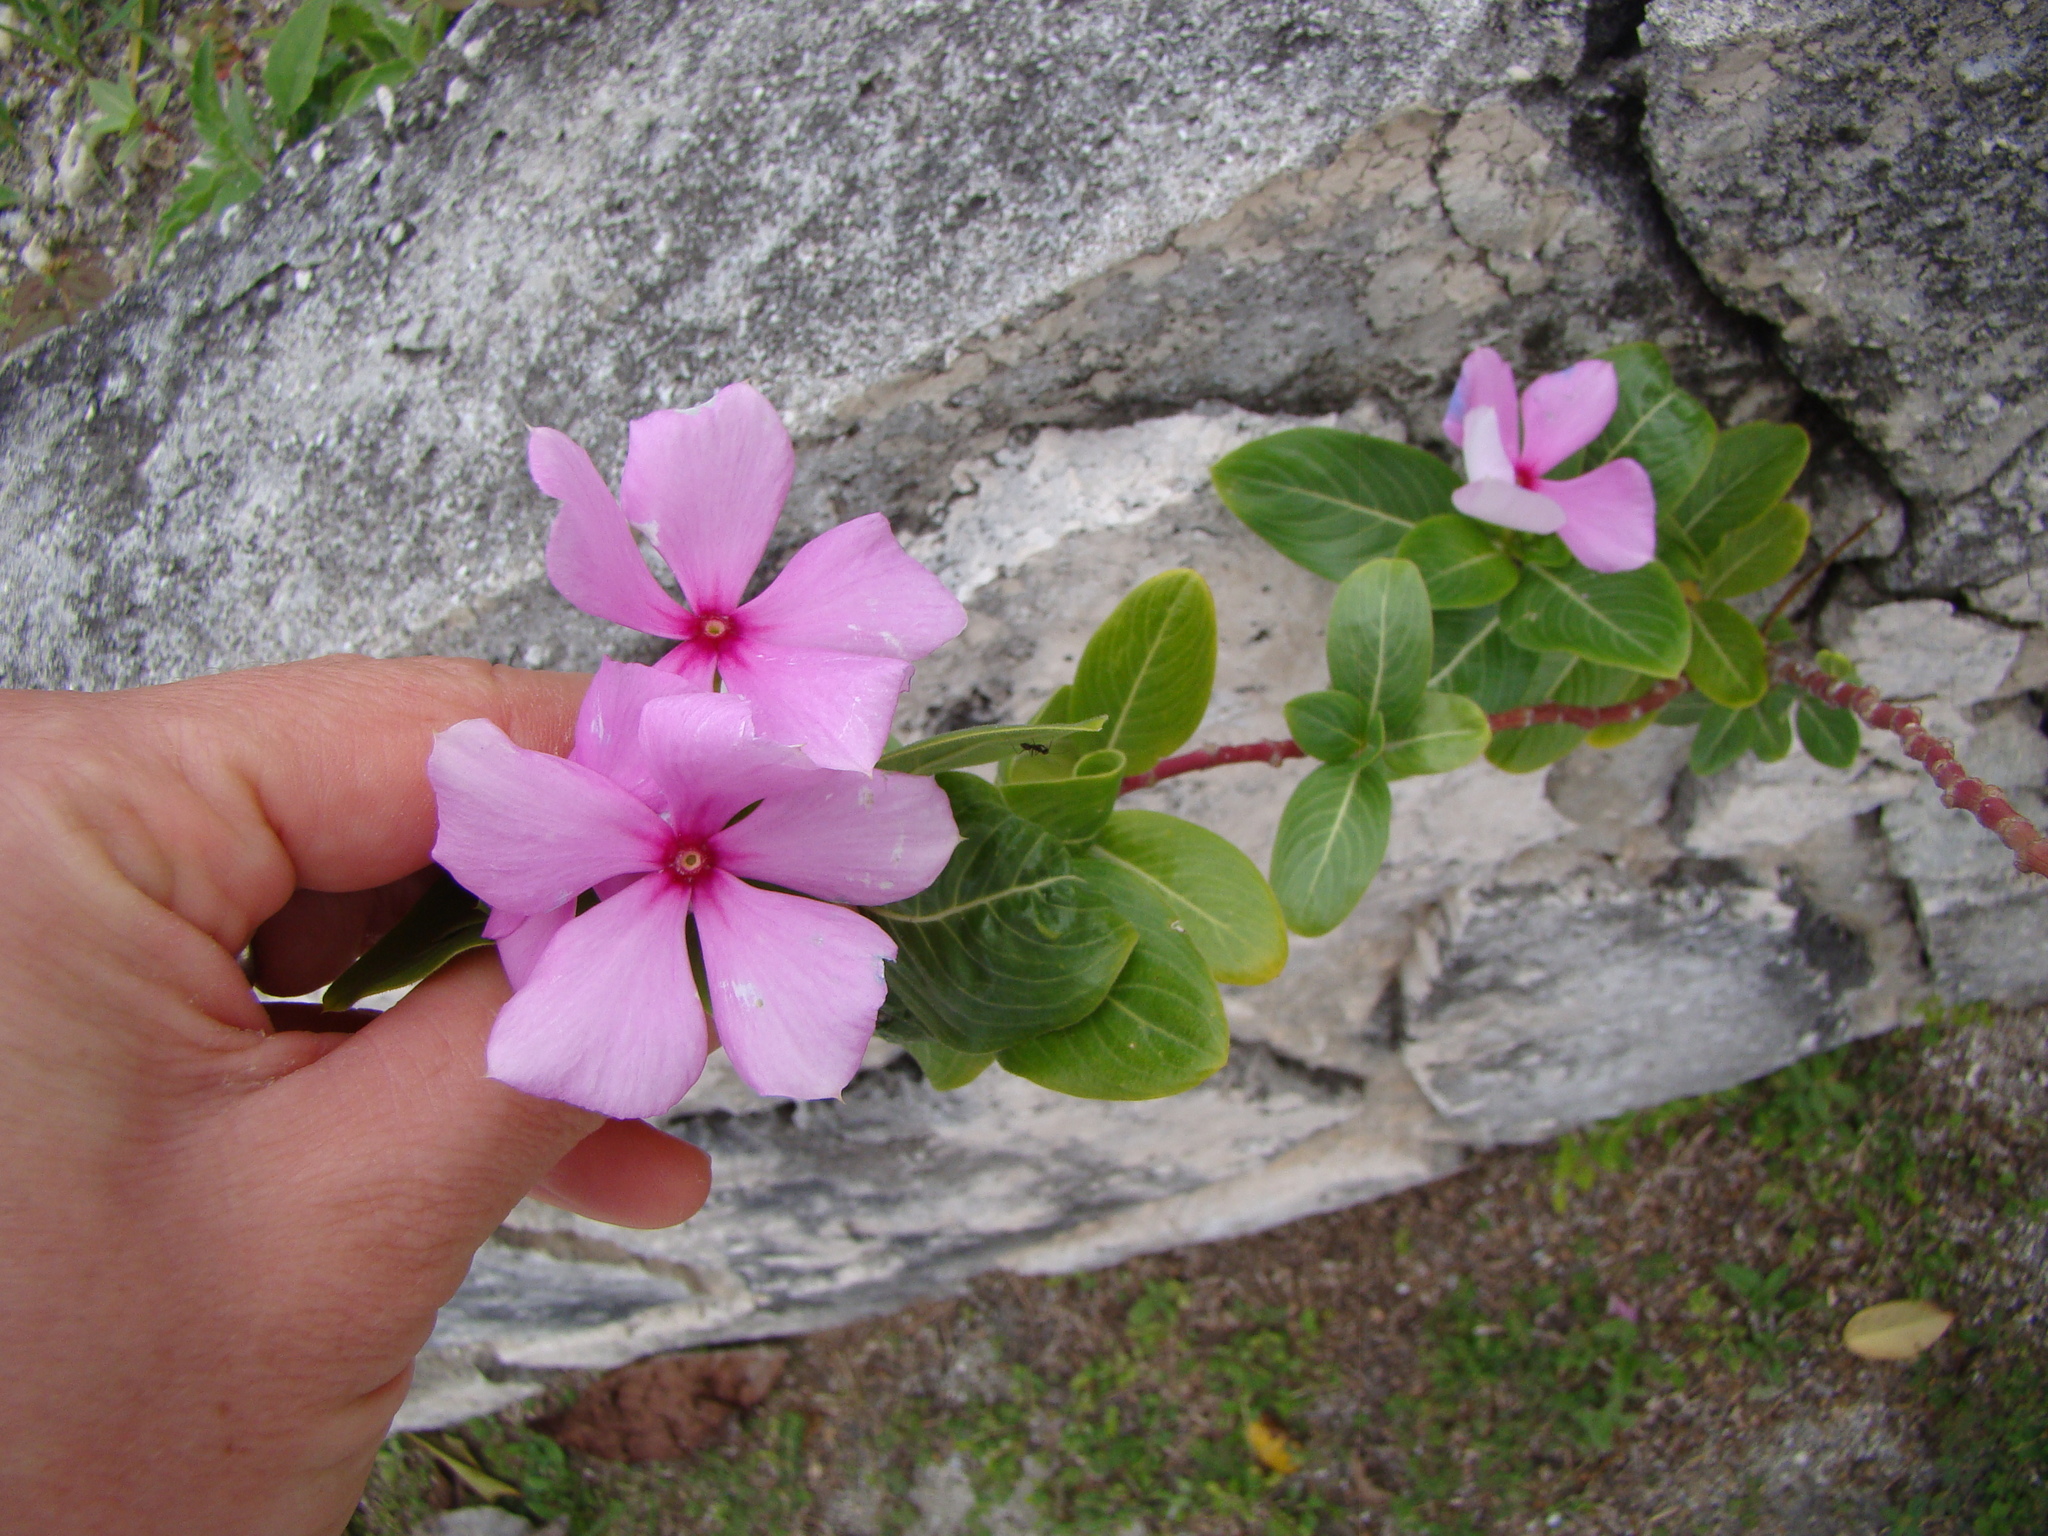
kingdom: Plantae
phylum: Tracheophyta
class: Magnoliopsida
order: Gentianales
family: Apocynaceae
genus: Catharanthus
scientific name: Catharanthus roseus
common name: Madagascar periwinkle
